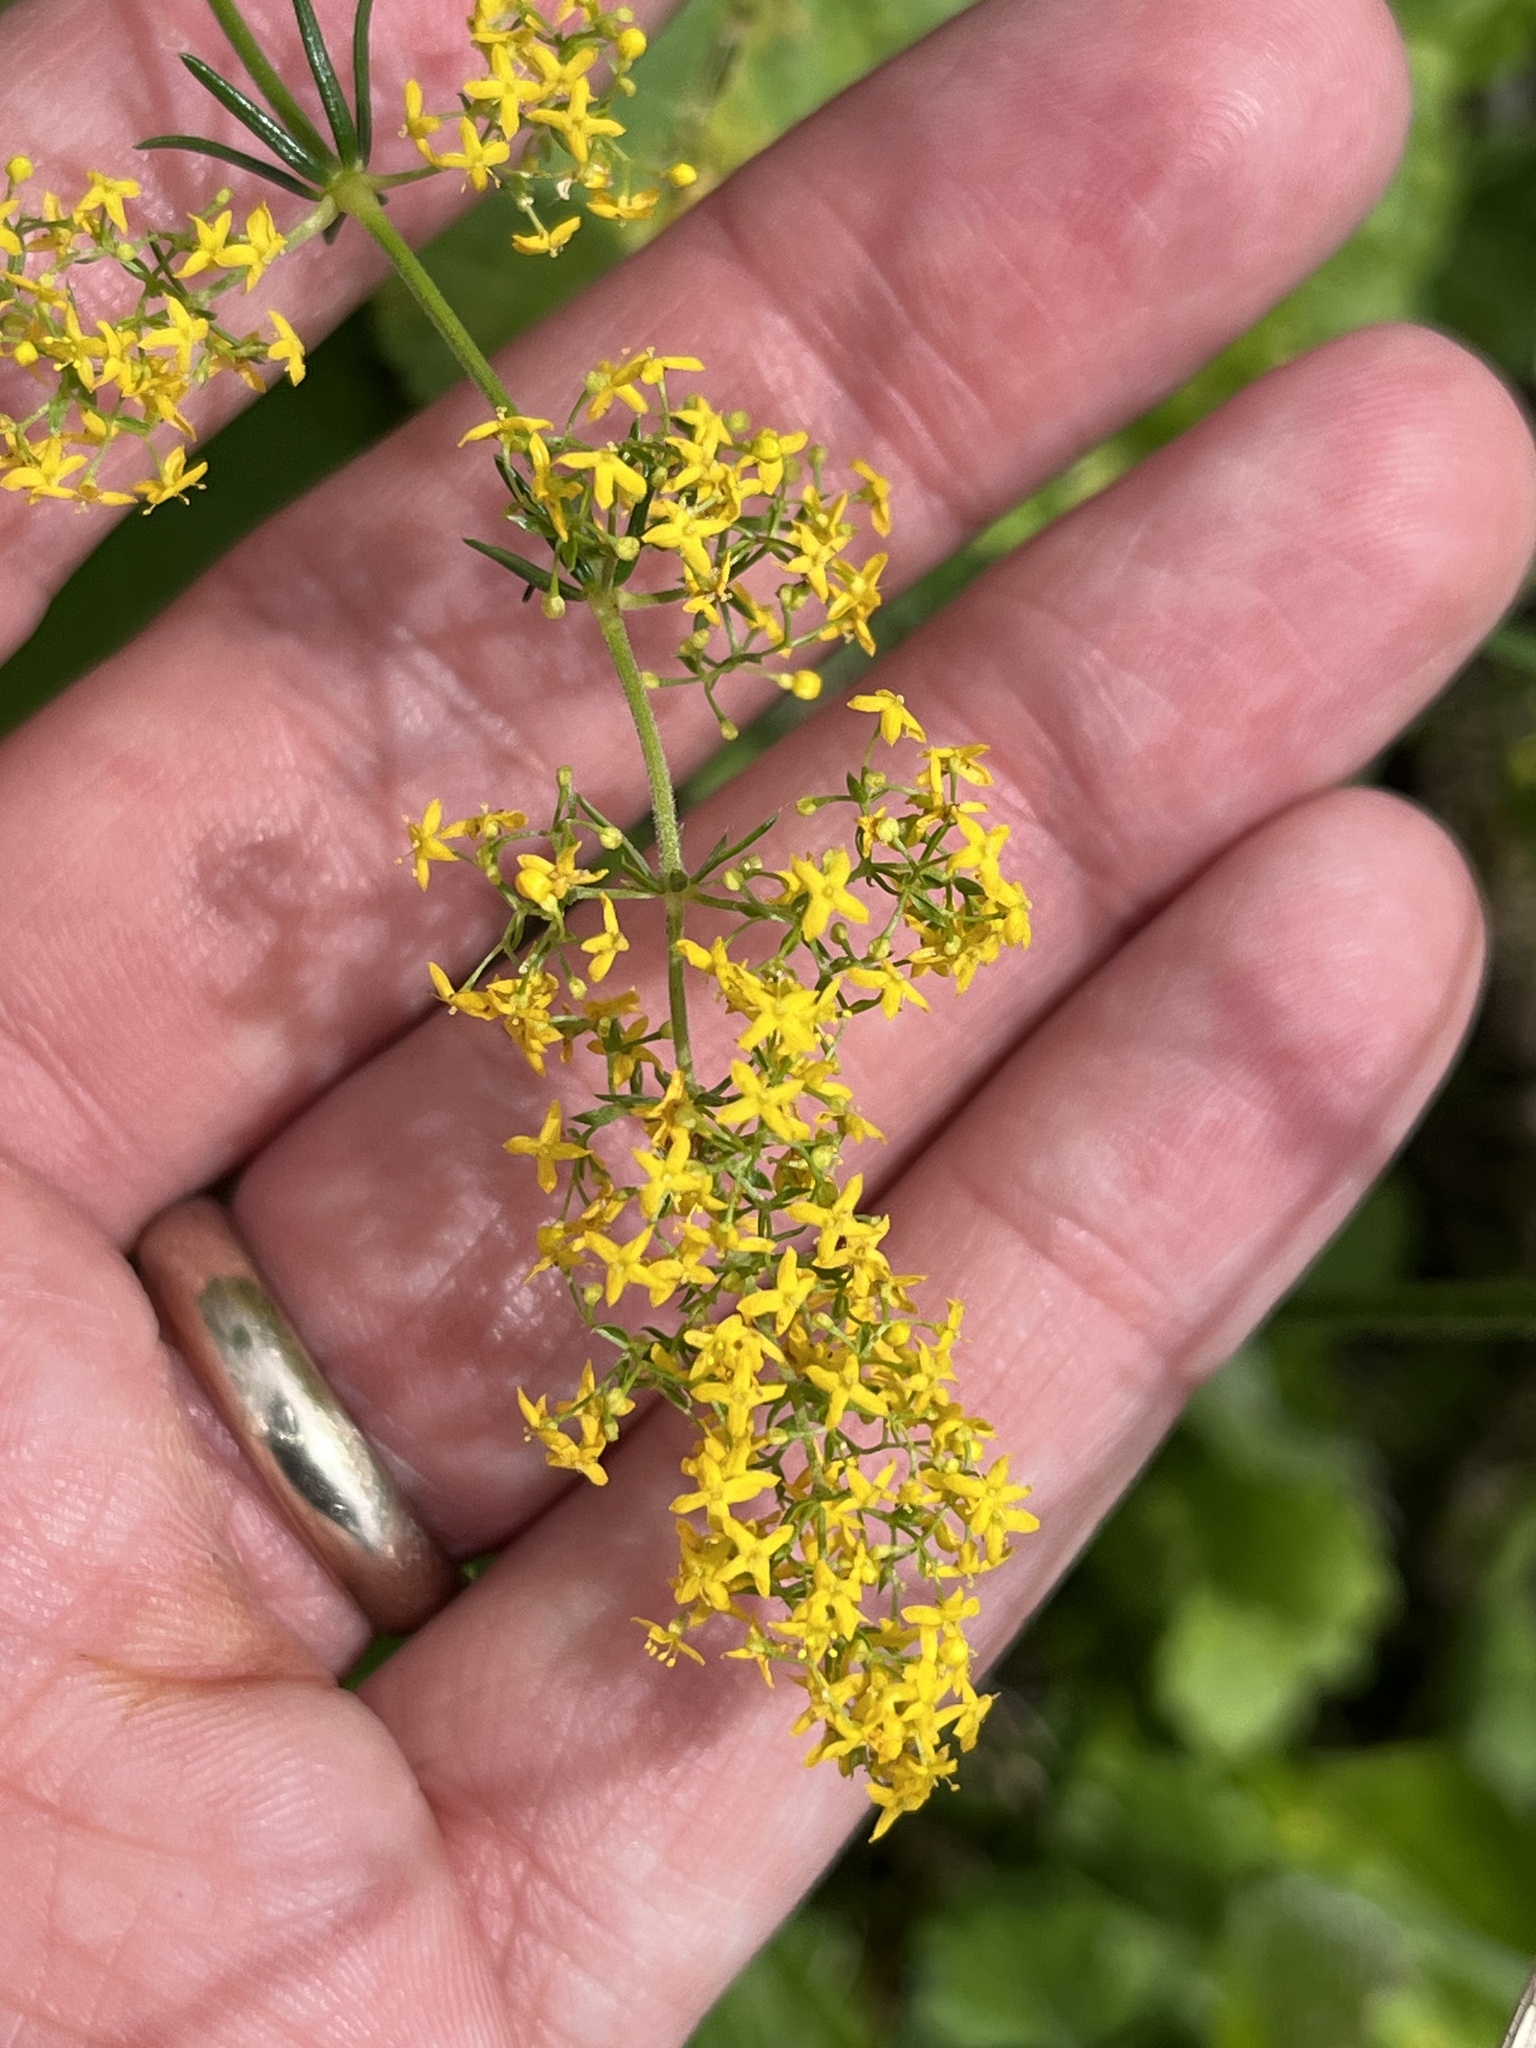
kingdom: Plantae
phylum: Tracheophyta
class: Magnoliopsida
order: Gentianales
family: Rubiaceae
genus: Galium
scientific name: Galium verum
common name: Lady's bedstraw
